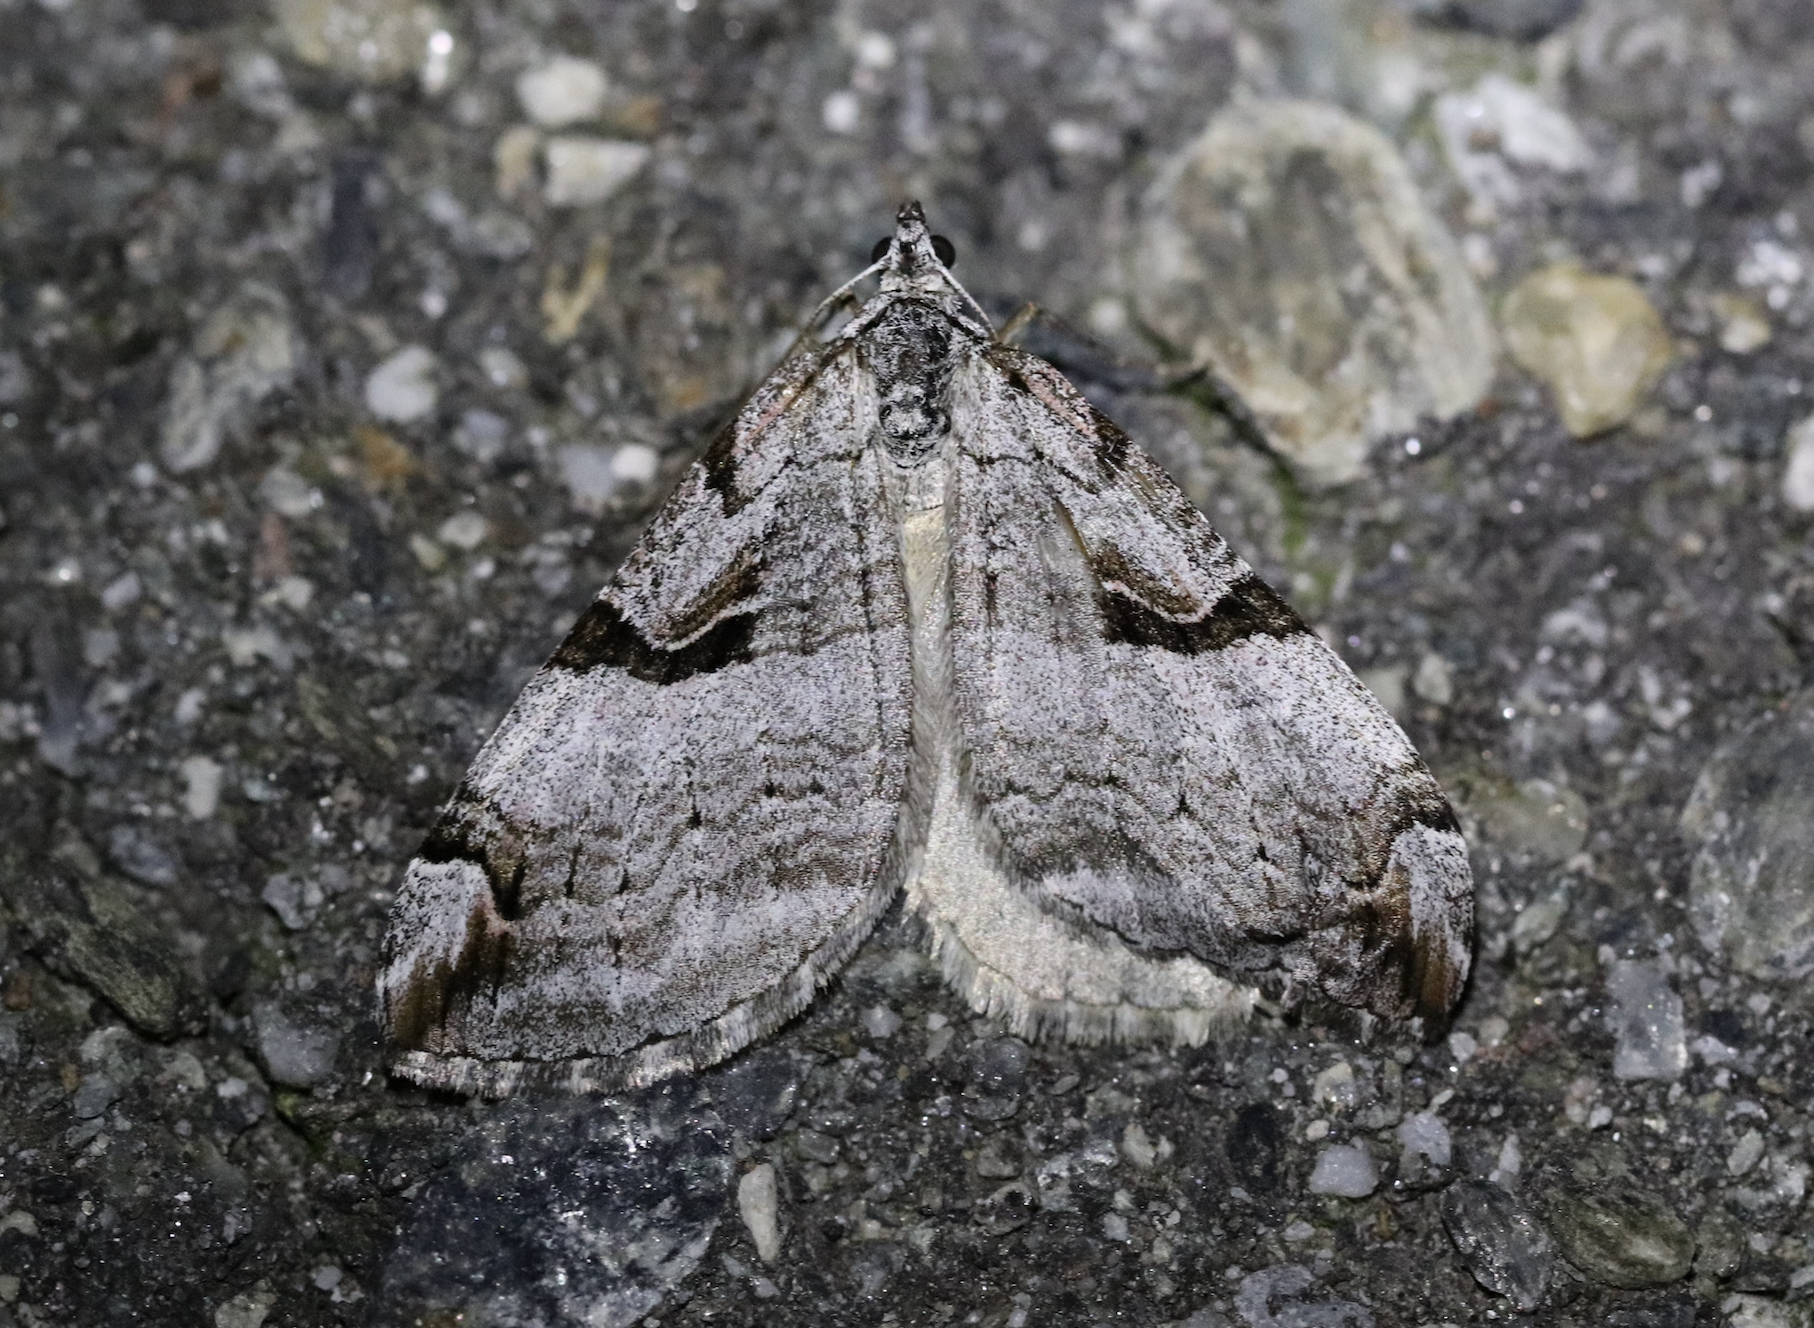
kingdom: Animalia
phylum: Arthropoda
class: Insecta
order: Lepidoptera
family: Geometridae
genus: Aplocera
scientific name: Aplocera praeformata
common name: Purple treble-bar
